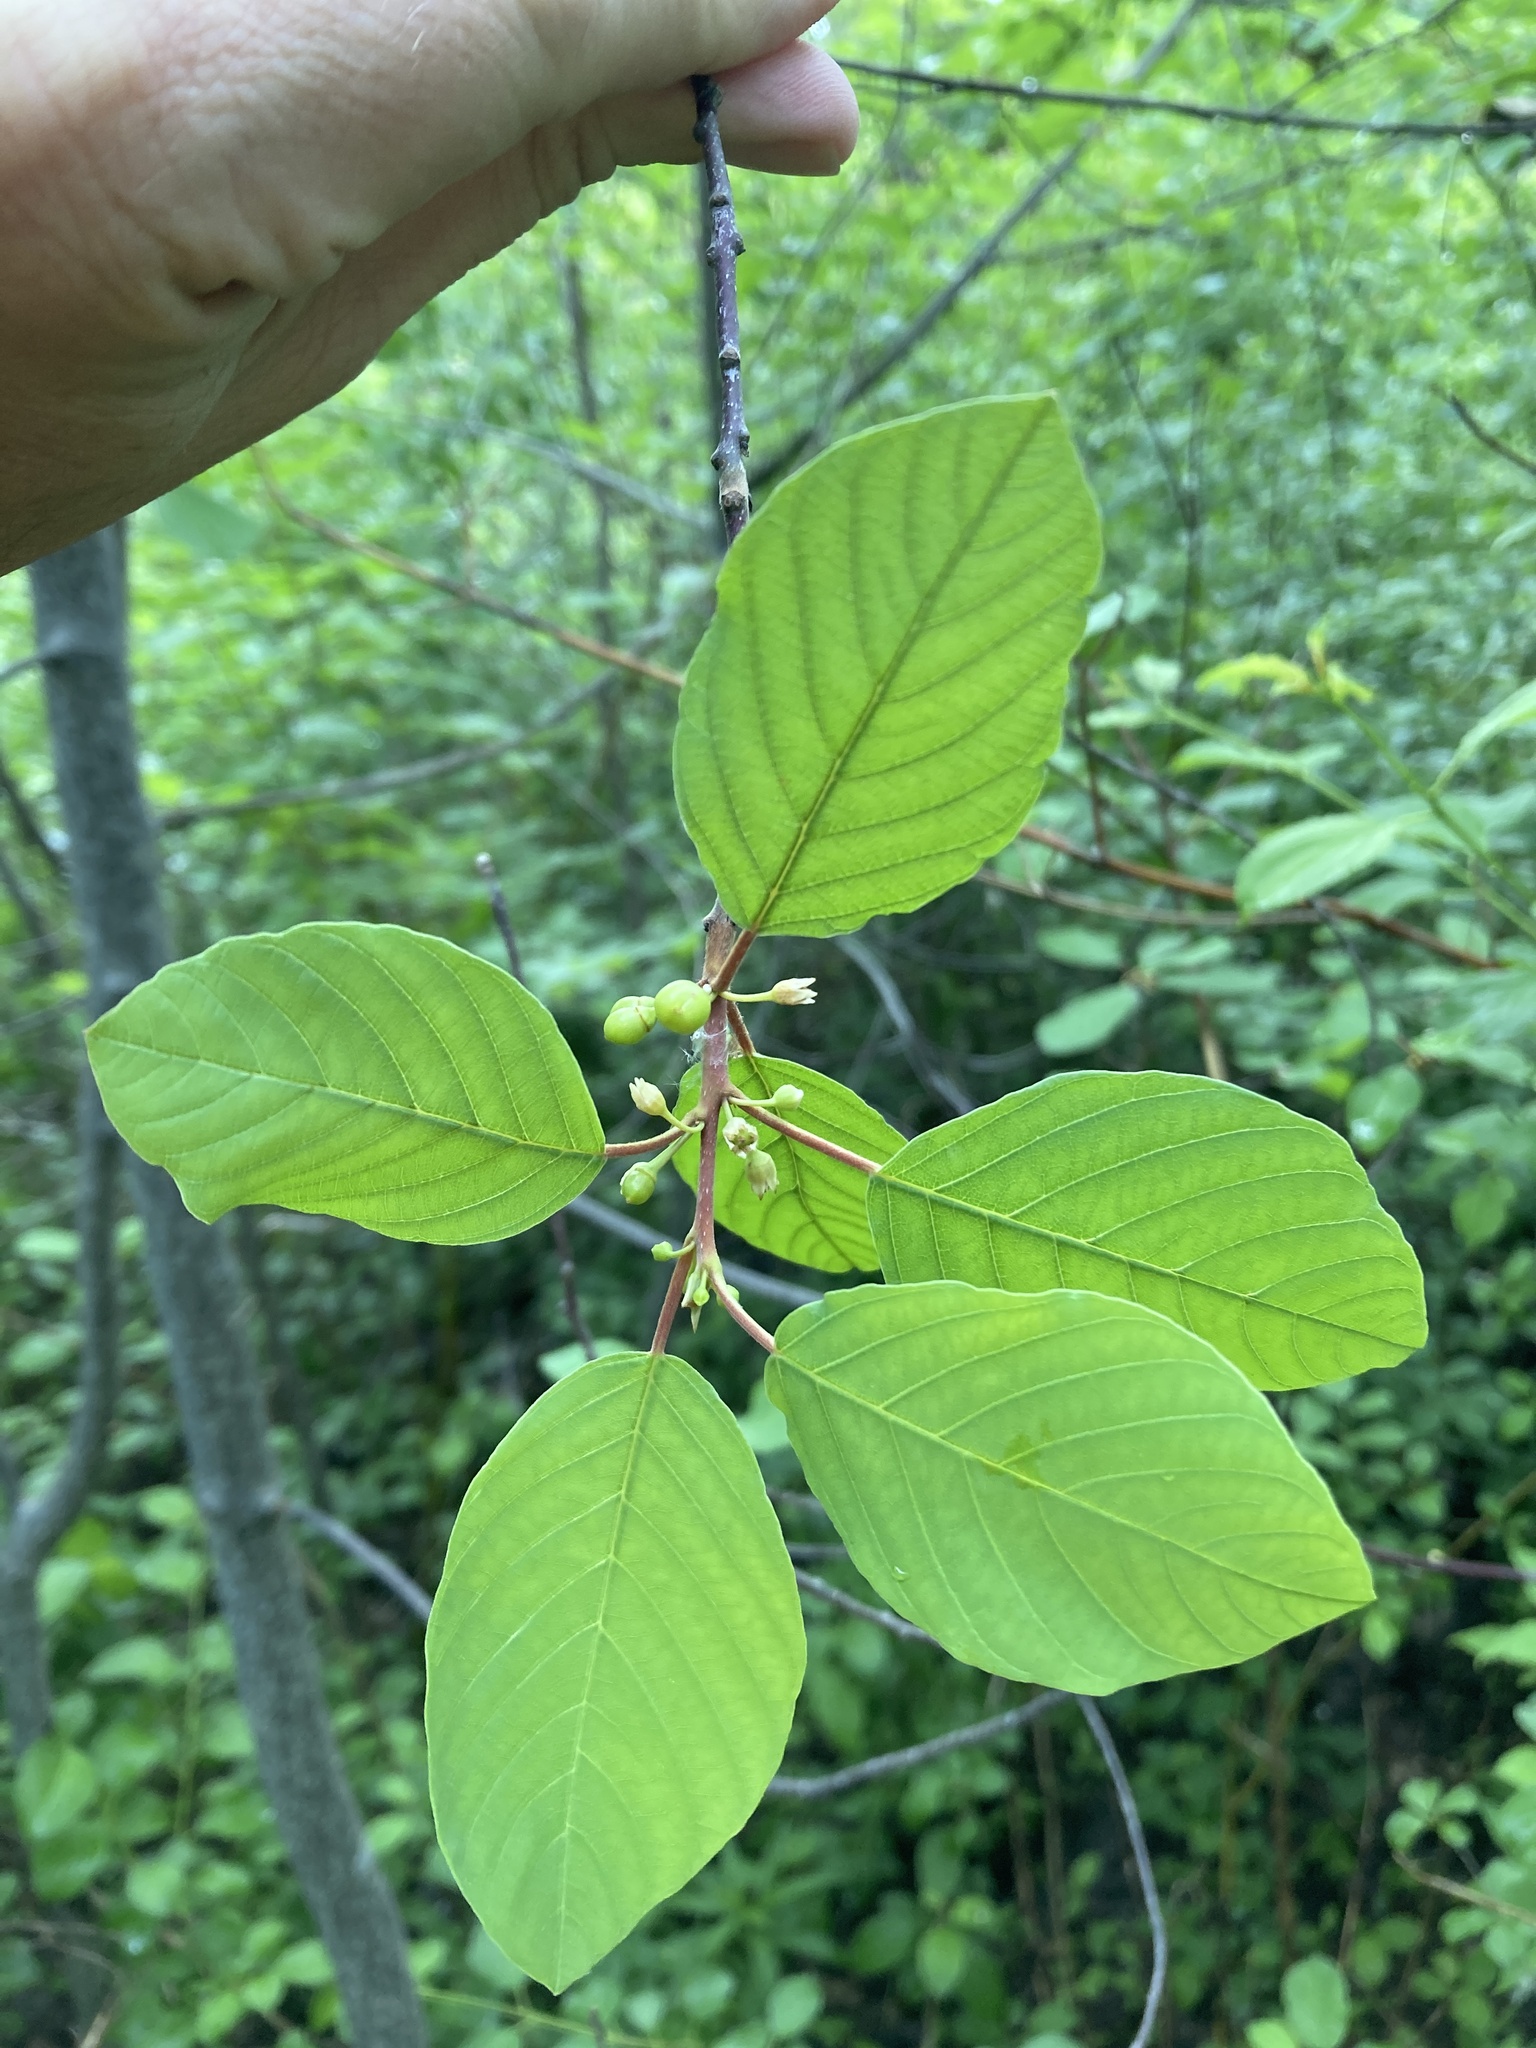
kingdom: Plantae
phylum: Tracheophyta
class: Magnoliopsida
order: Rosales
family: Rhamnaceae
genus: Frangula
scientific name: Frangula alnus
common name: Alder buckthorn
